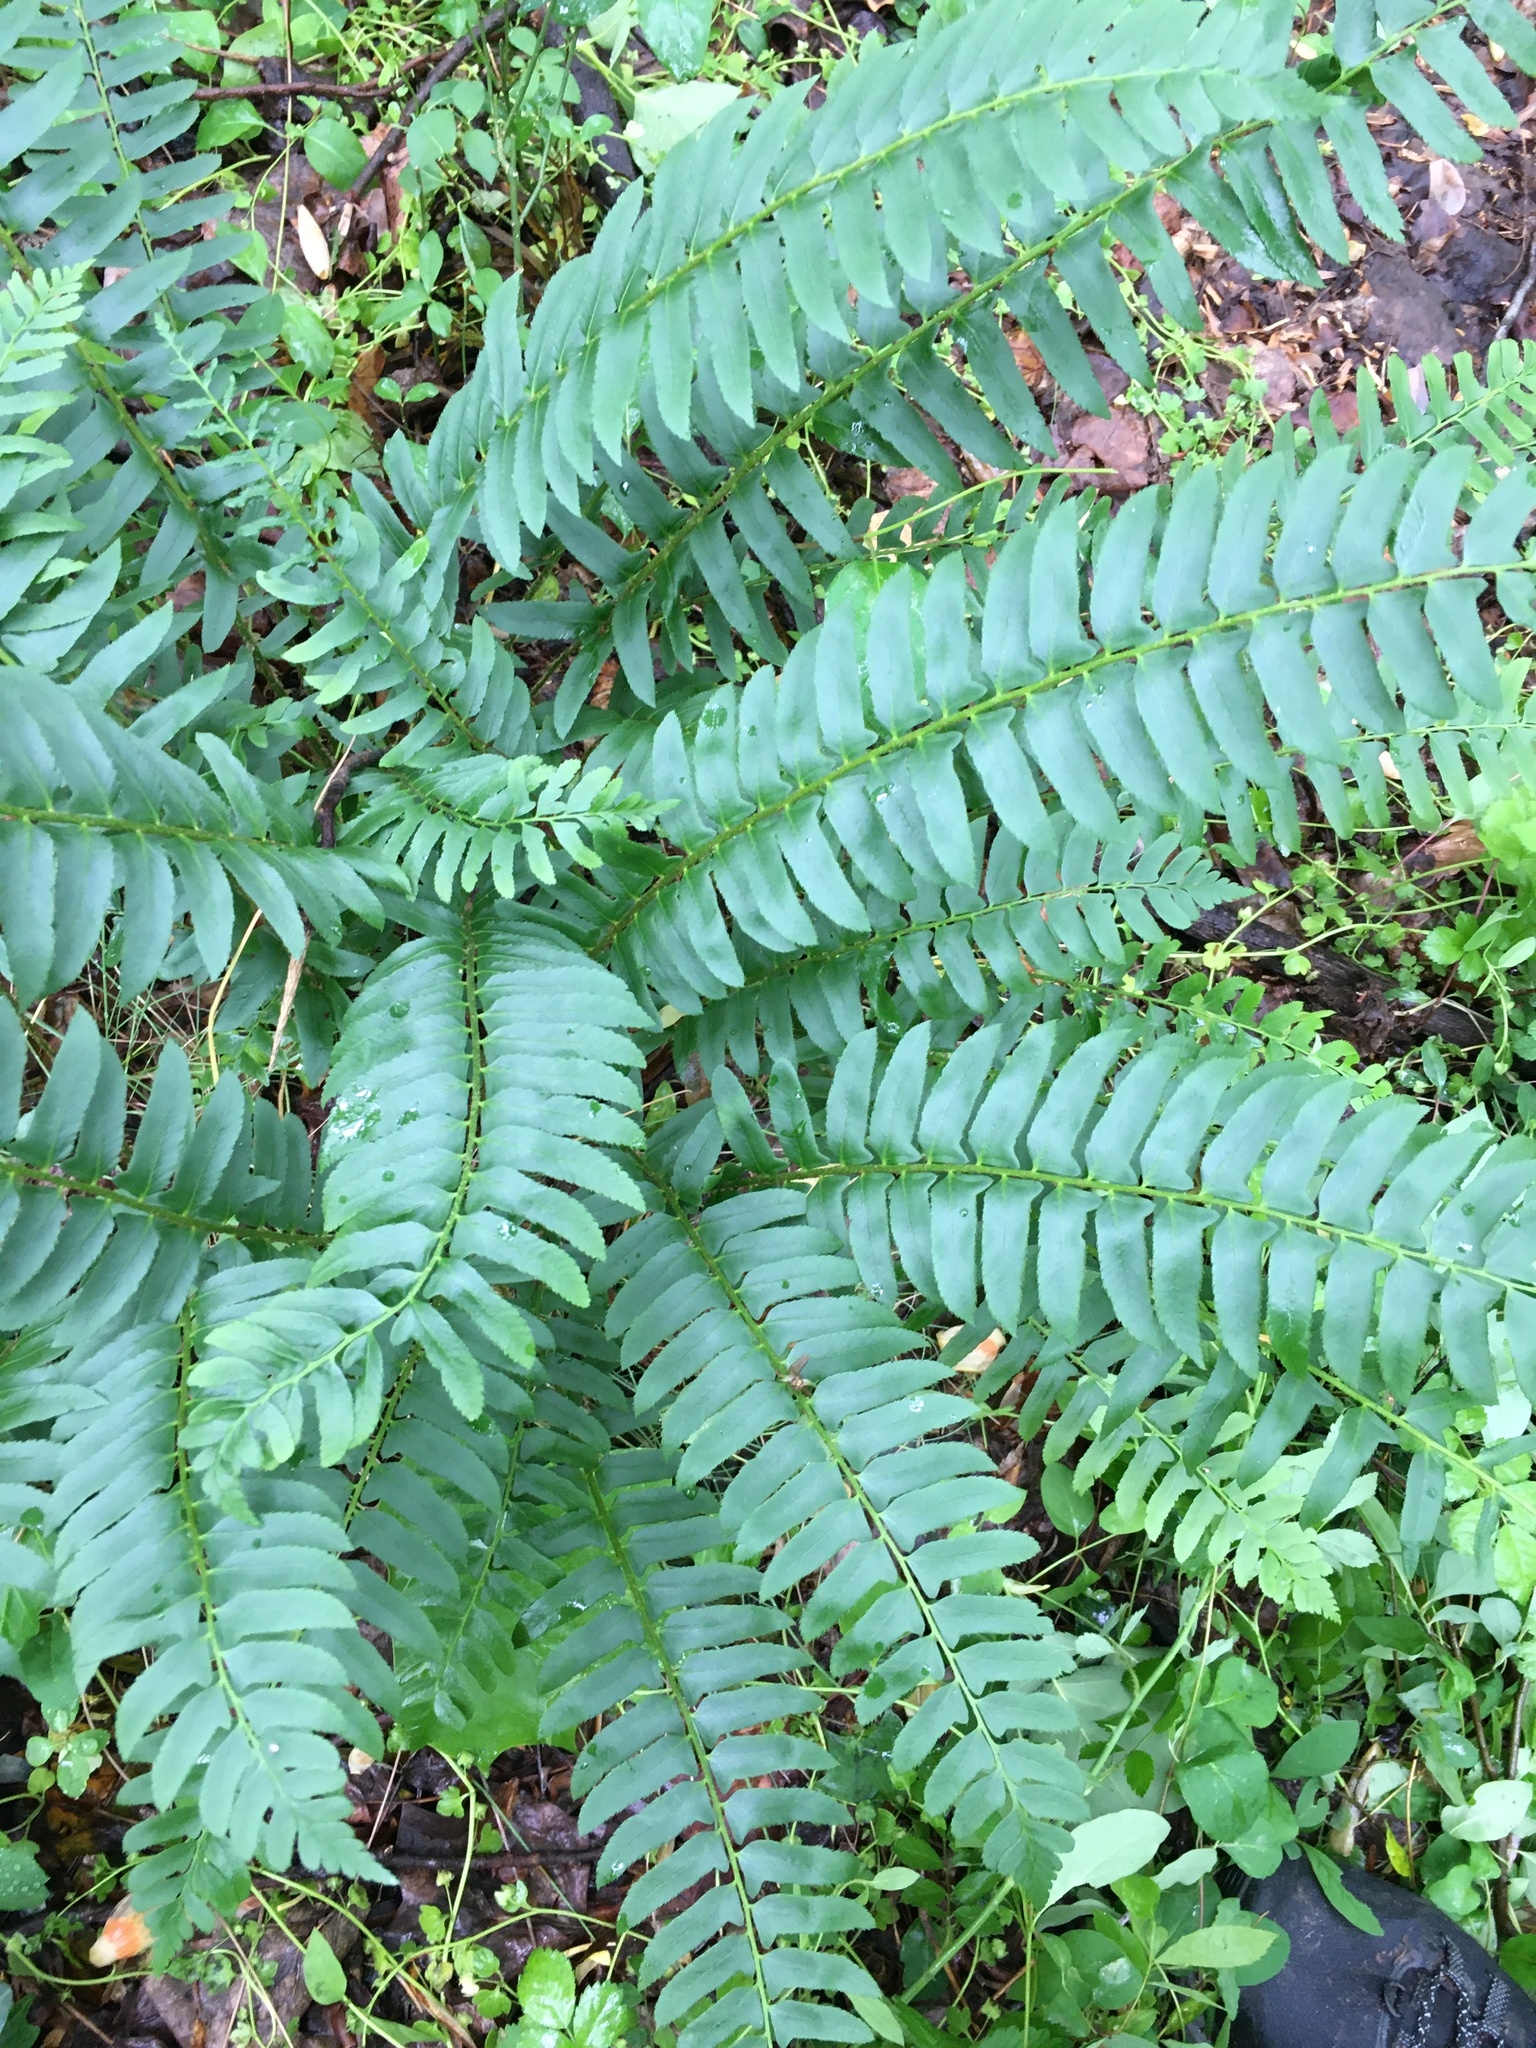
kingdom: Plantae
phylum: Tracheophyta
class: Polypodiopsida
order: Polypodiales
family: Dryopteridaceae
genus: Polystichum
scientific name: Polystichum acrostichoides
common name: Christmas fern
